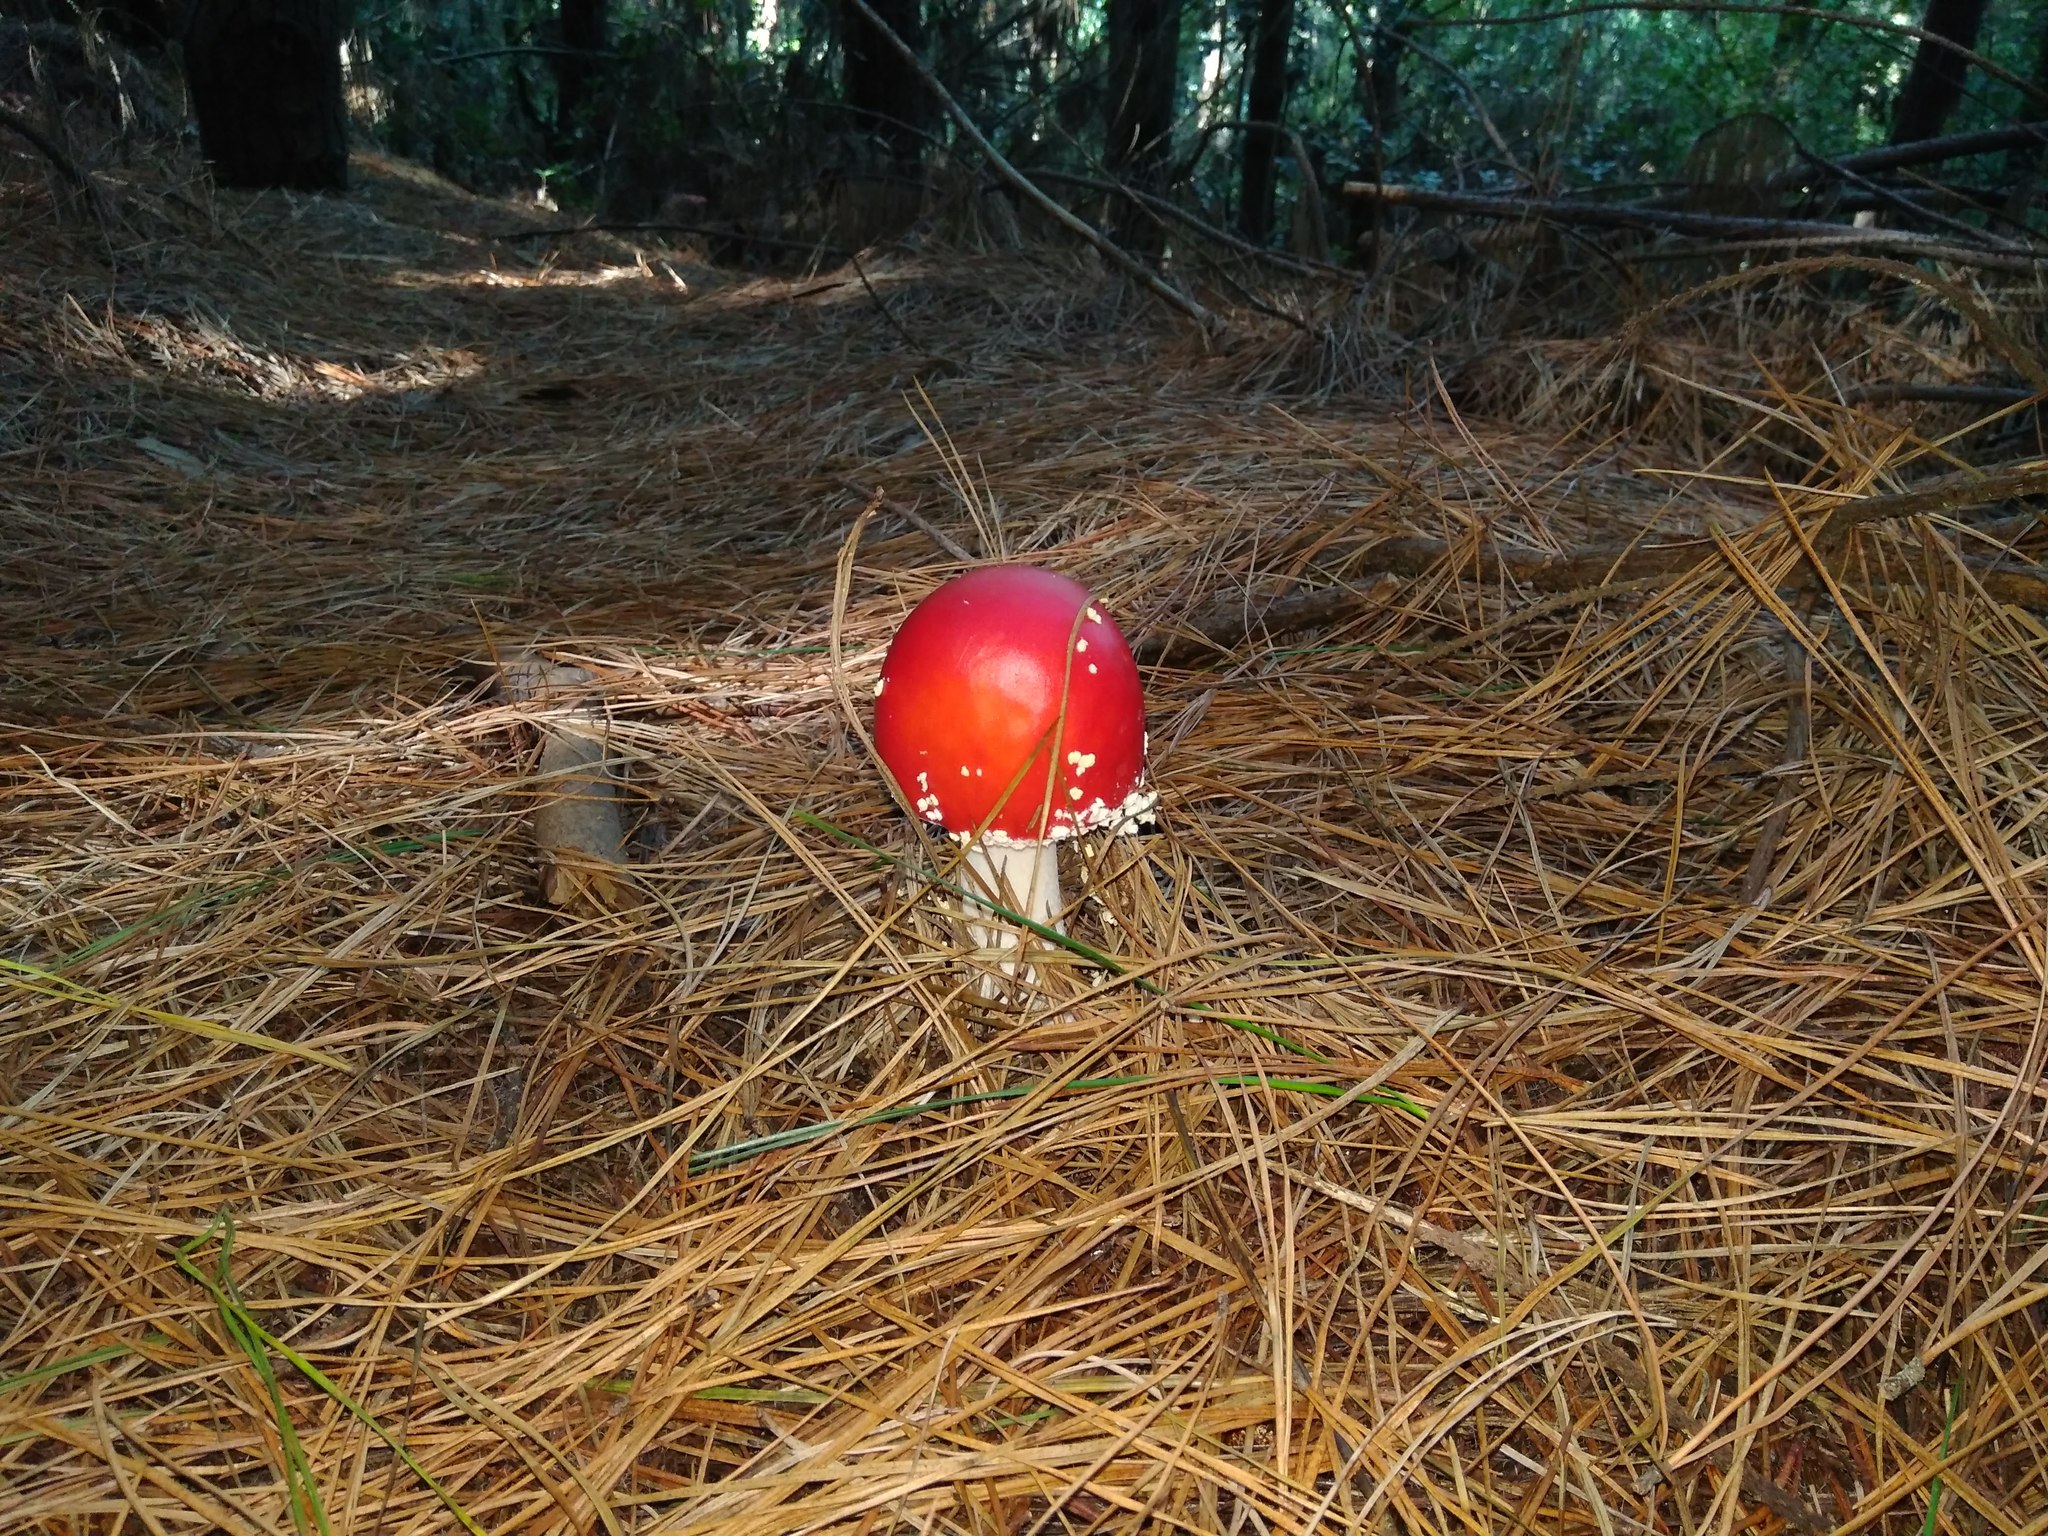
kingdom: Fungi
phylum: Basidiomycota
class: Agaricomycetes
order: Agaricales
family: Amanitaceae
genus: Amanita
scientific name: Amanita muscaria
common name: Fly agaric
